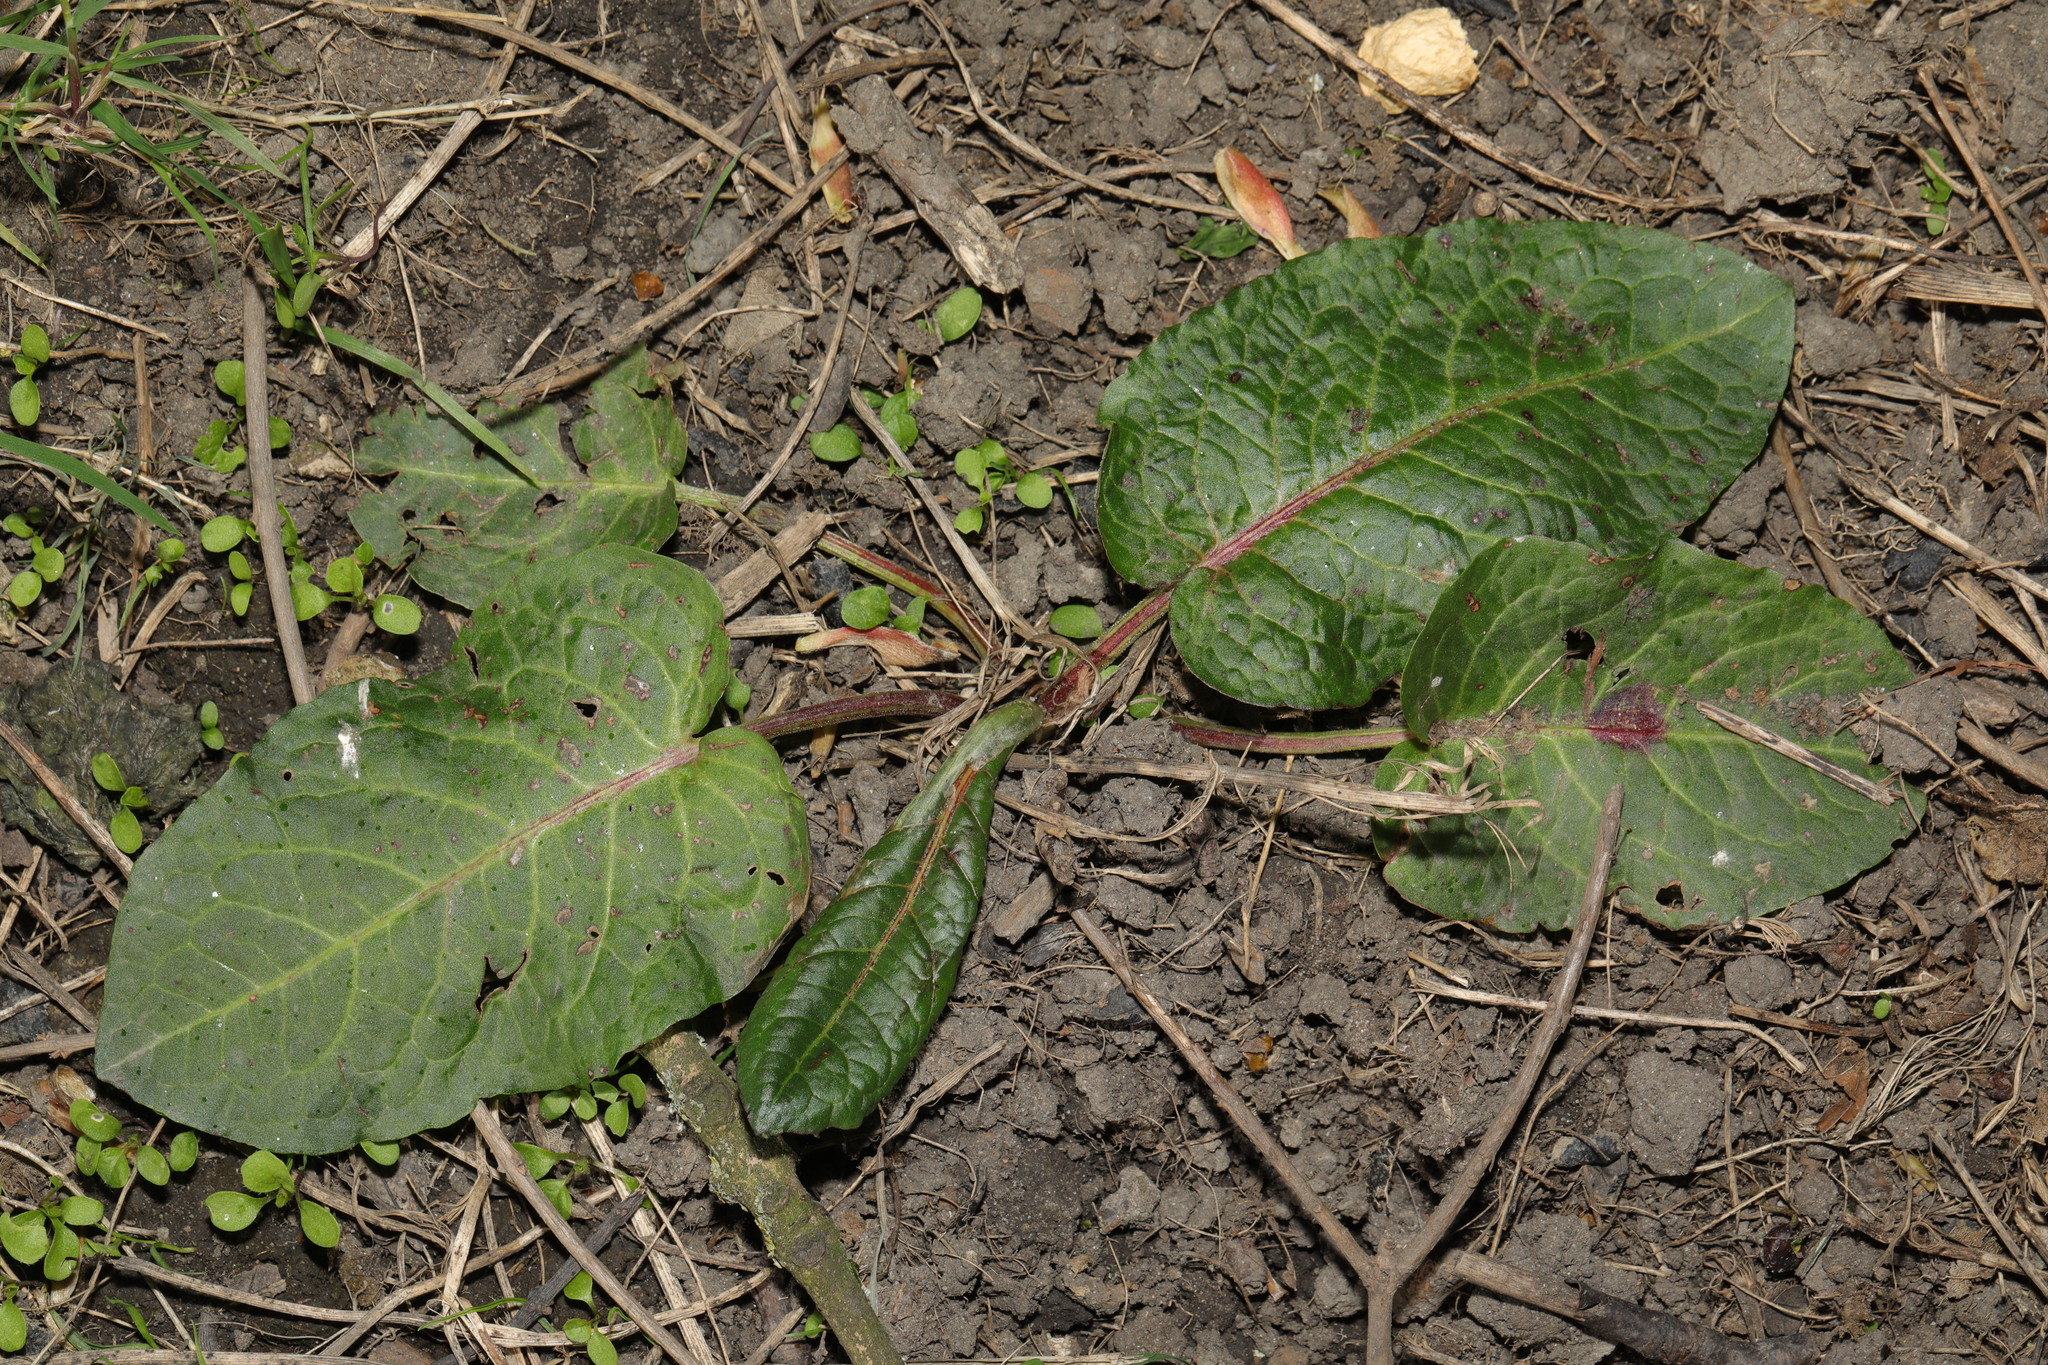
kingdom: Plantae
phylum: Tracheophyta
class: Magnoliopsida
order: Caryophyllales
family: Polygonaceae
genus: Rumex
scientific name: Rumex obtusifolius
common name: Bitter dock
